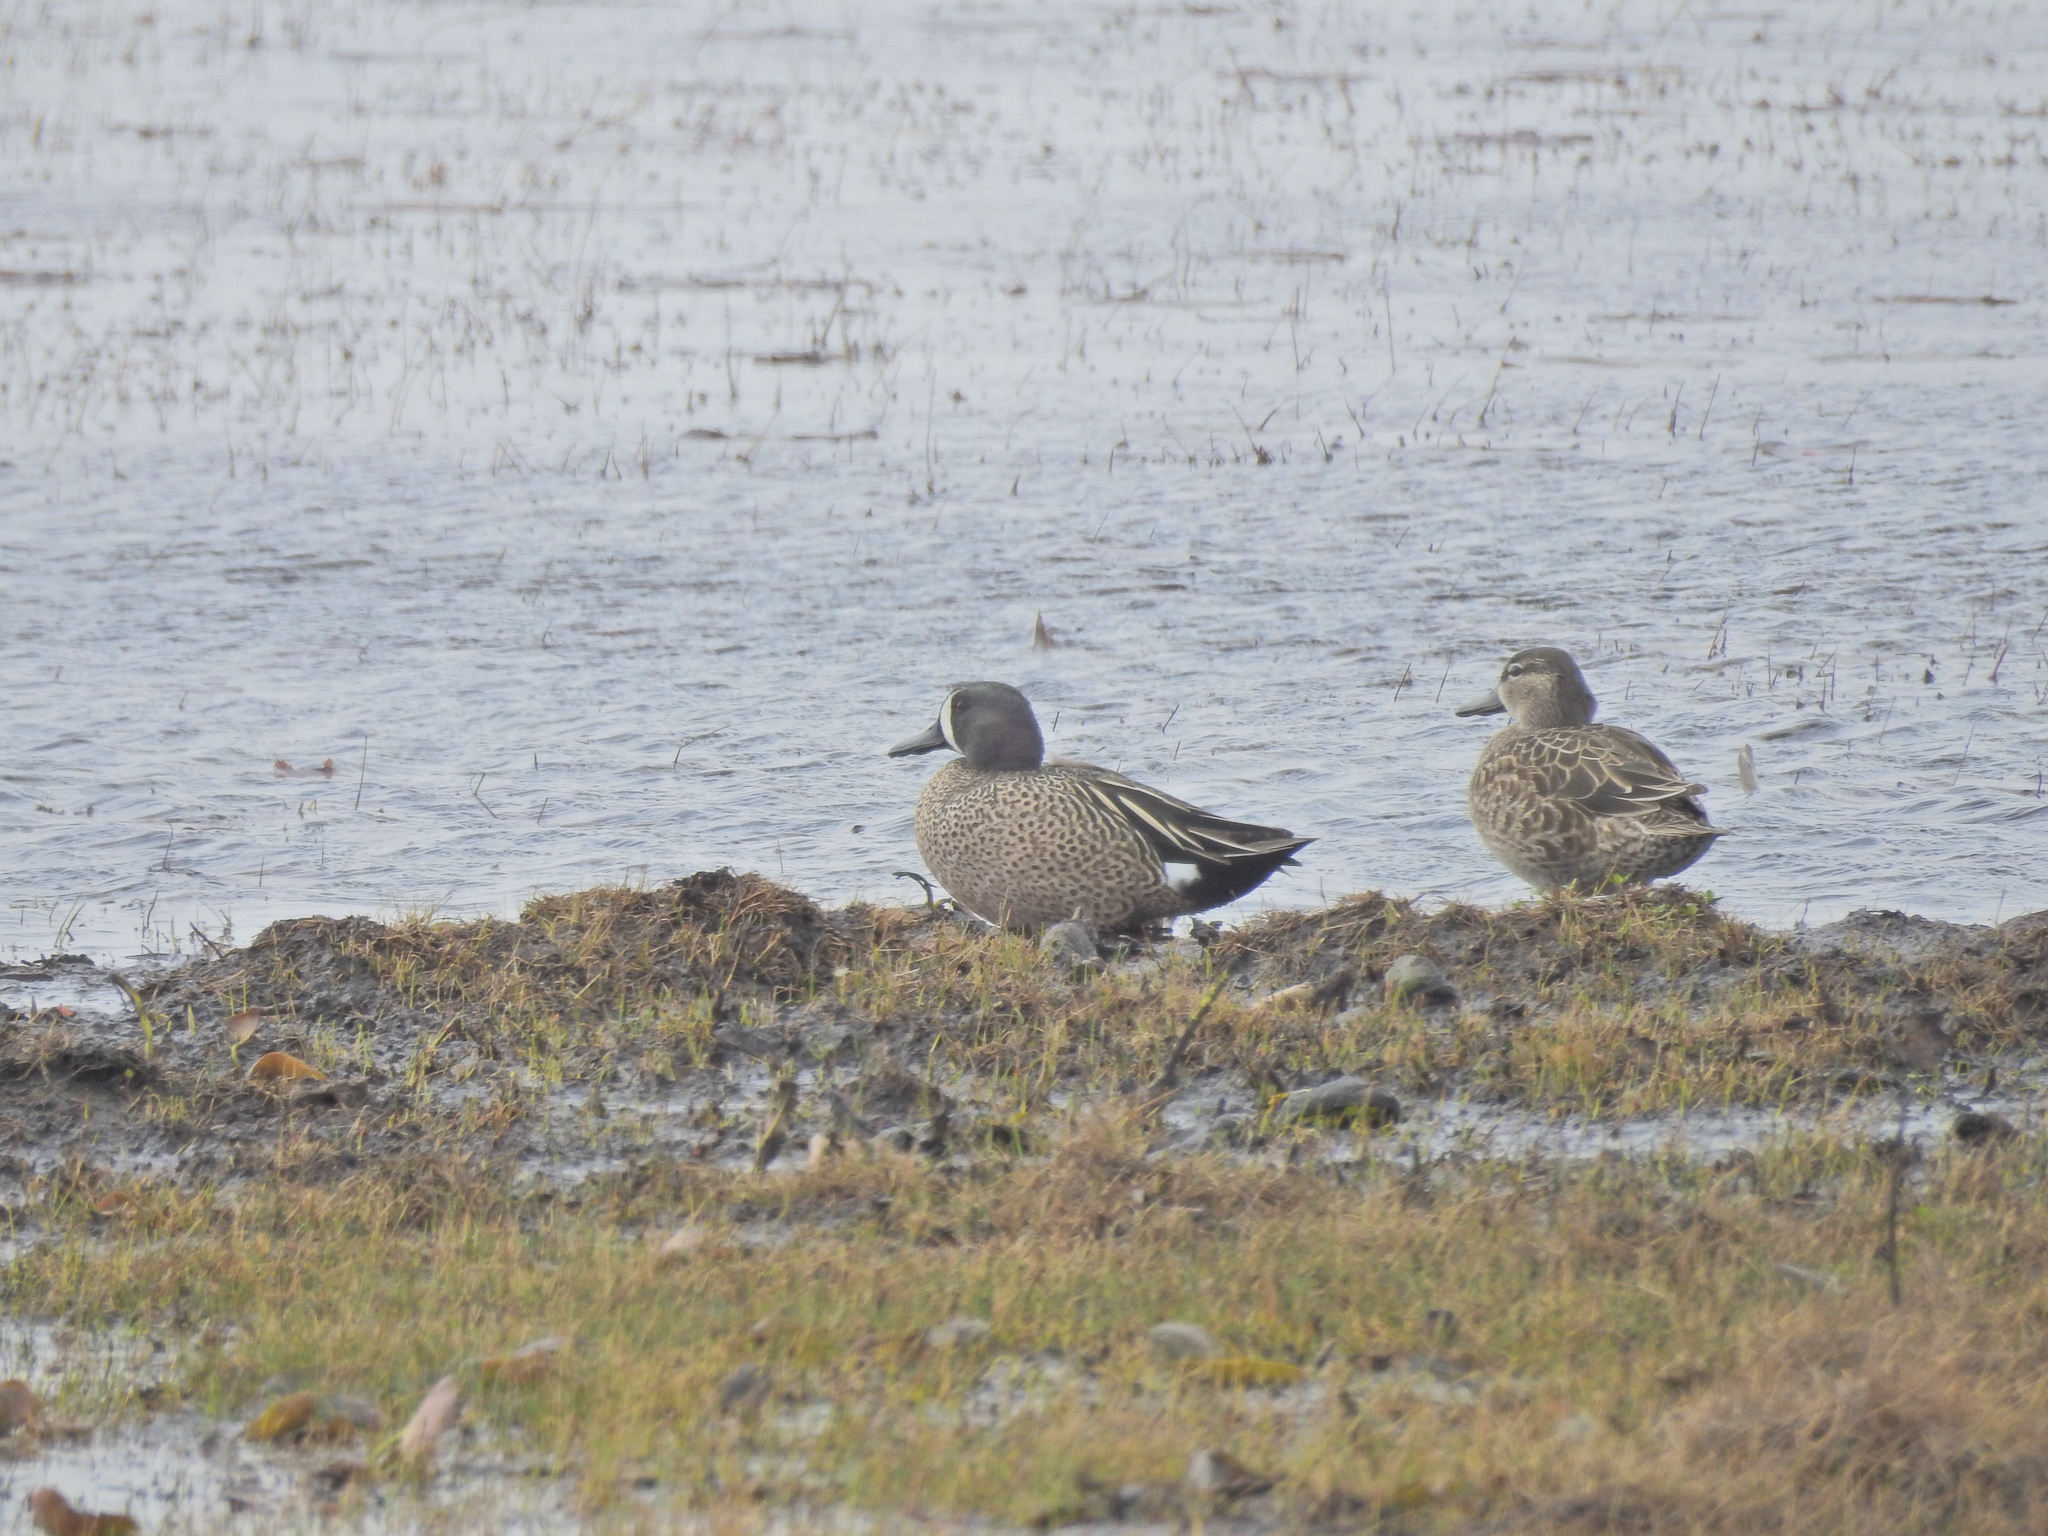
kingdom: Animalia
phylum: Chordata
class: Aves
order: Anseriformes
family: Anatidae
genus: Spatula
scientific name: Spatula discors
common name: Blue-winged teal
